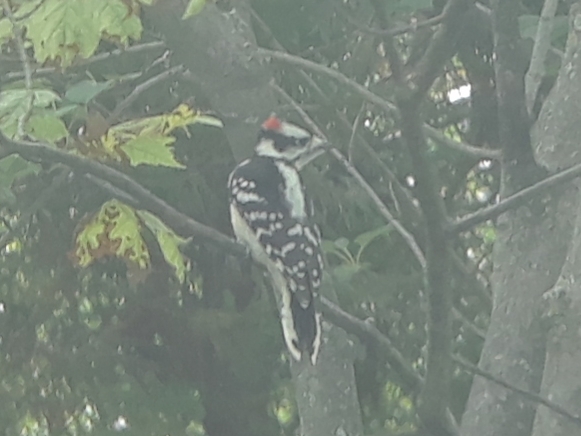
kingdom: Animalia
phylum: Chordata
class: Aves
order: Piciformes
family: Picidae
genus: Dryobates
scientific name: Dryobates pubescens
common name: Downy woodpecker
